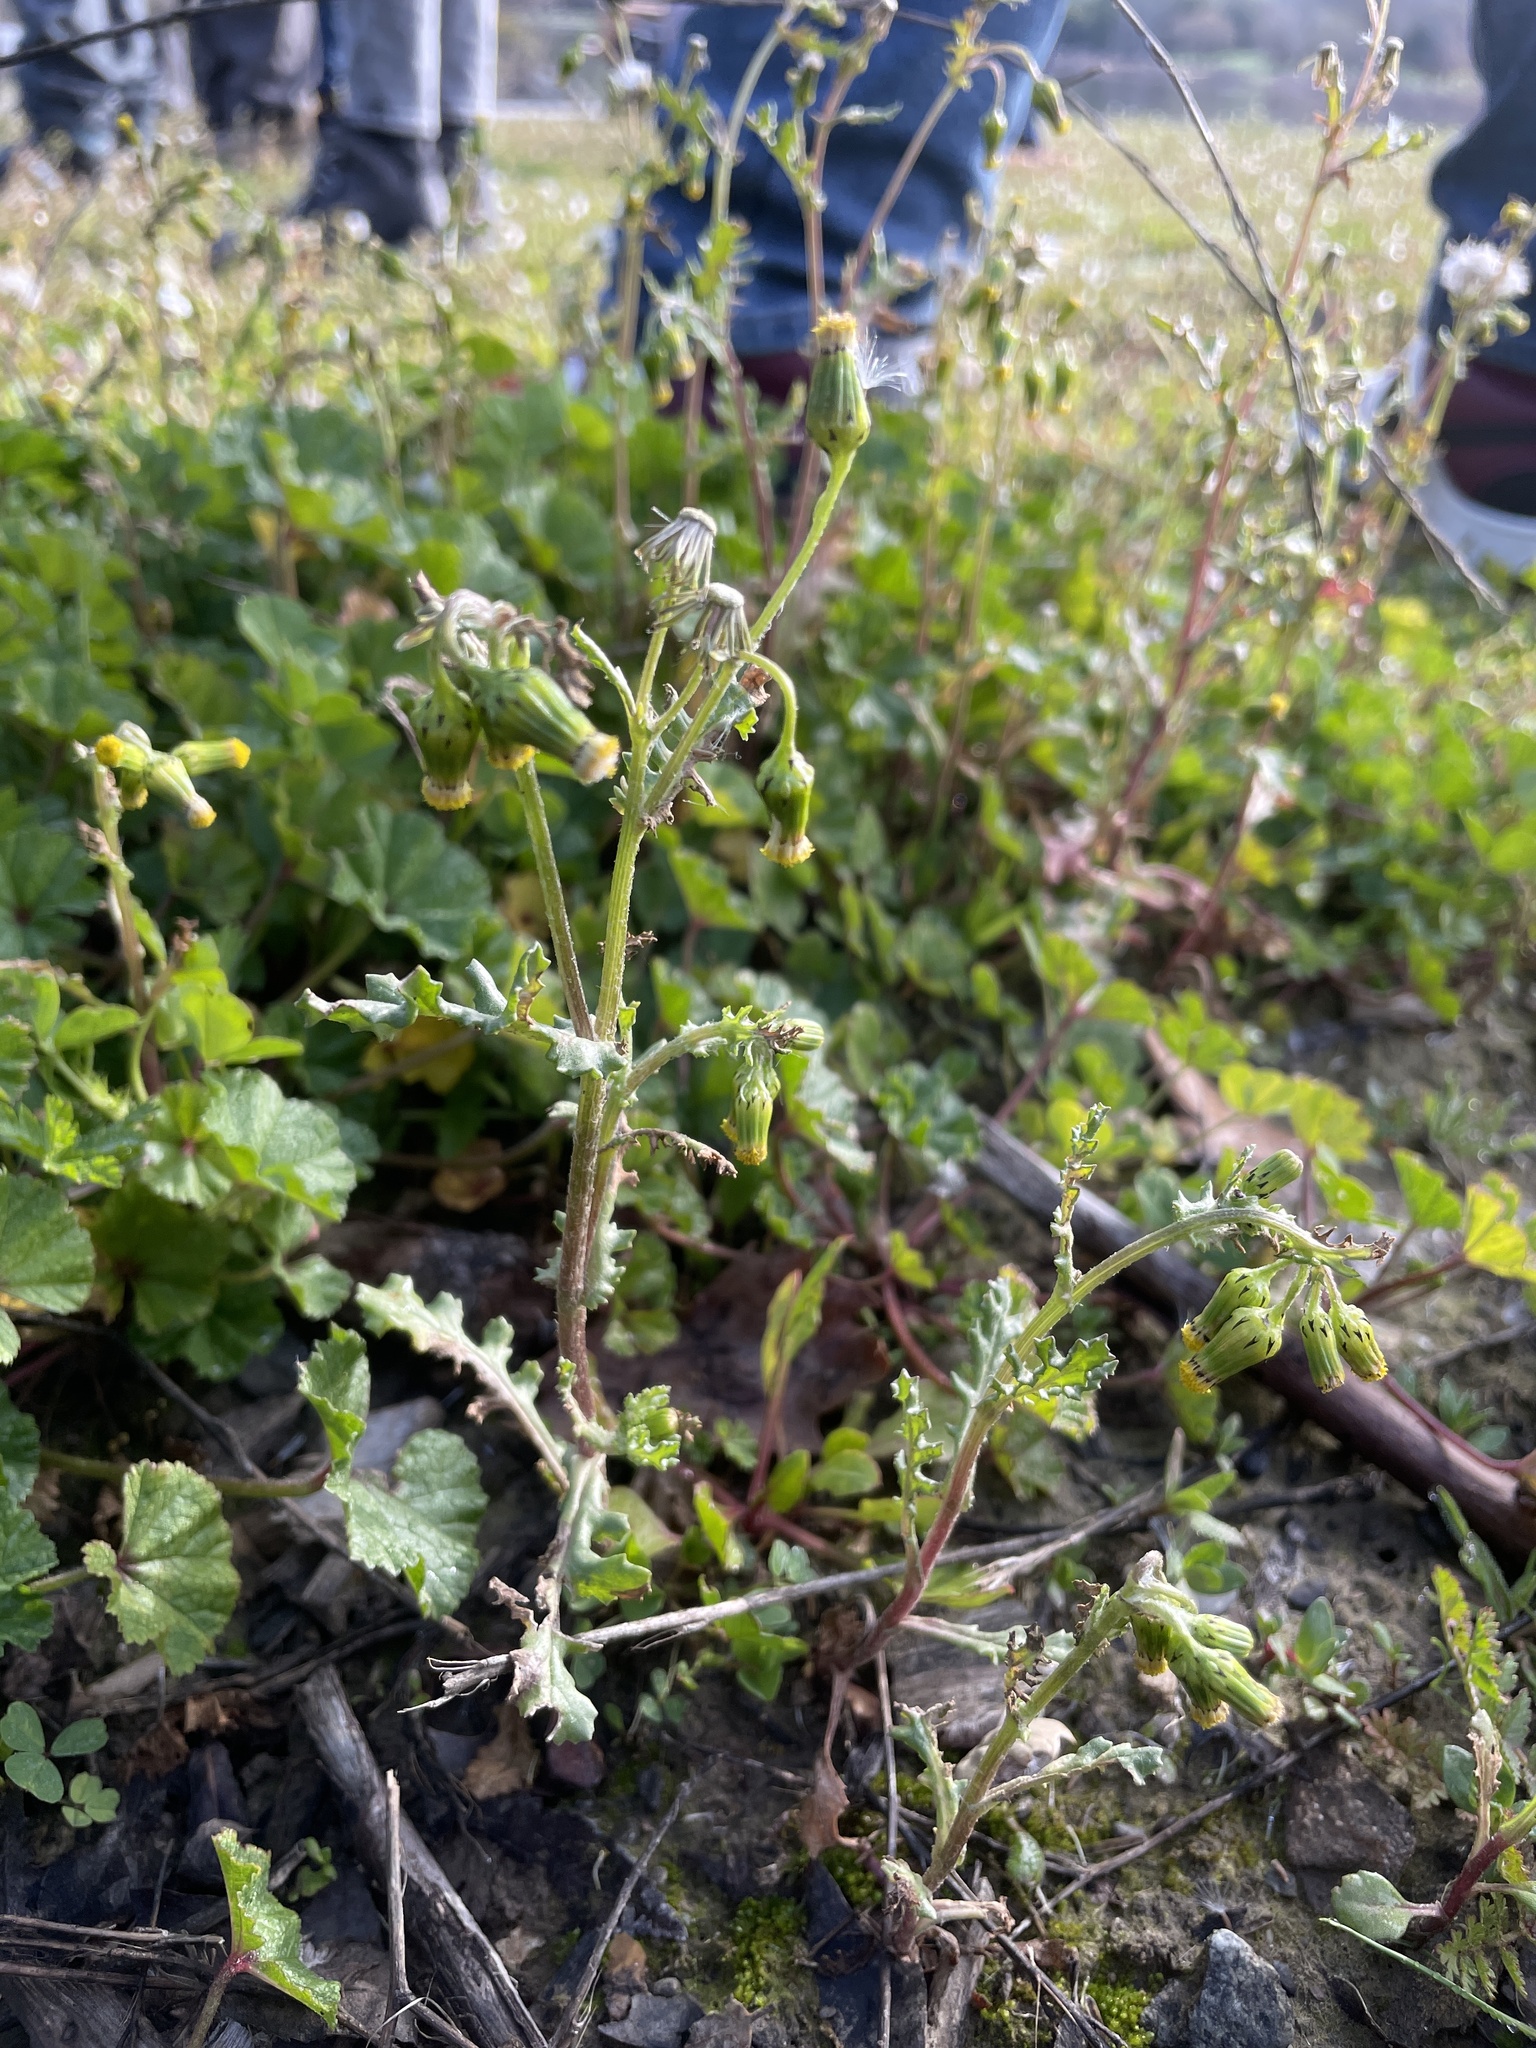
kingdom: Plantae
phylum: Tracheophyta
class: Magnoliopsida
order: Asterales
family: Asteraceae
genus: Senecio
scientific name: Senecio vulgaris
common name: Old-man-in-the-spring
